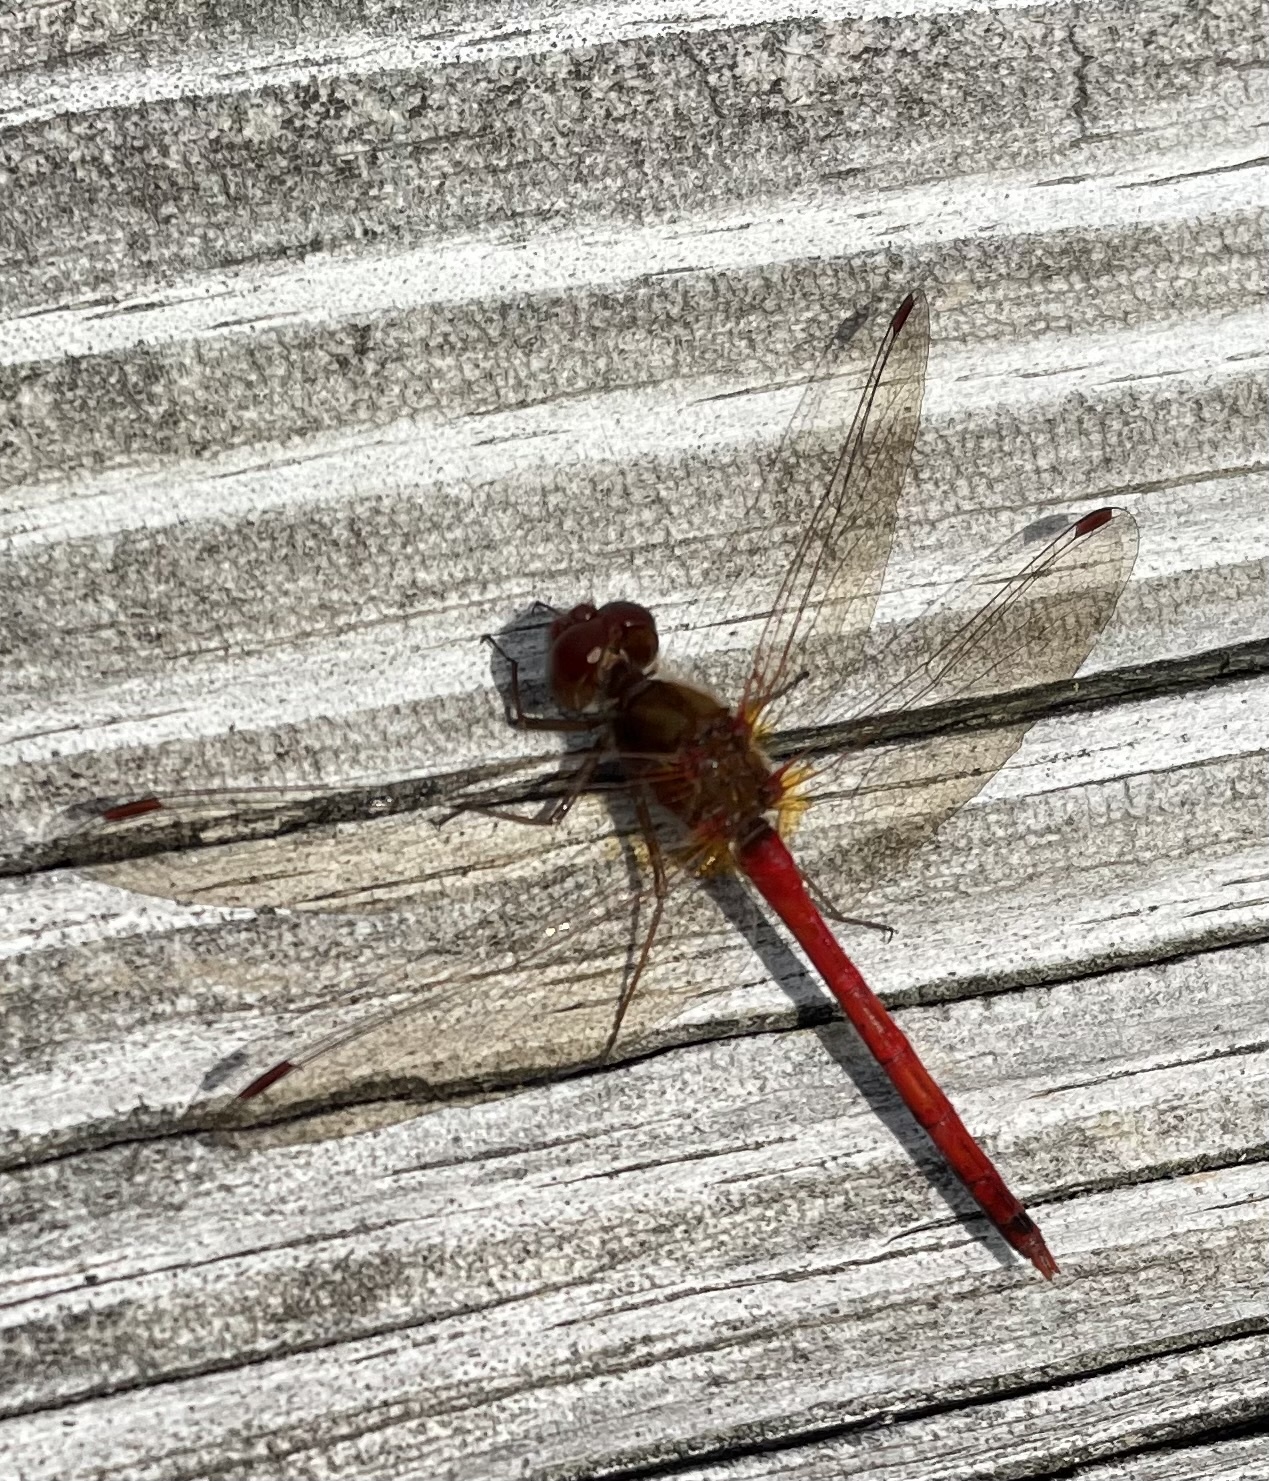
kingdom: Animalia
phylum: Arthropoda
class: Insecta
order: Odonata
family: Libellulidae
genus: Sympetrum
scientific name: Sympetrum vicinum
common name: Autumn meadowhawk
